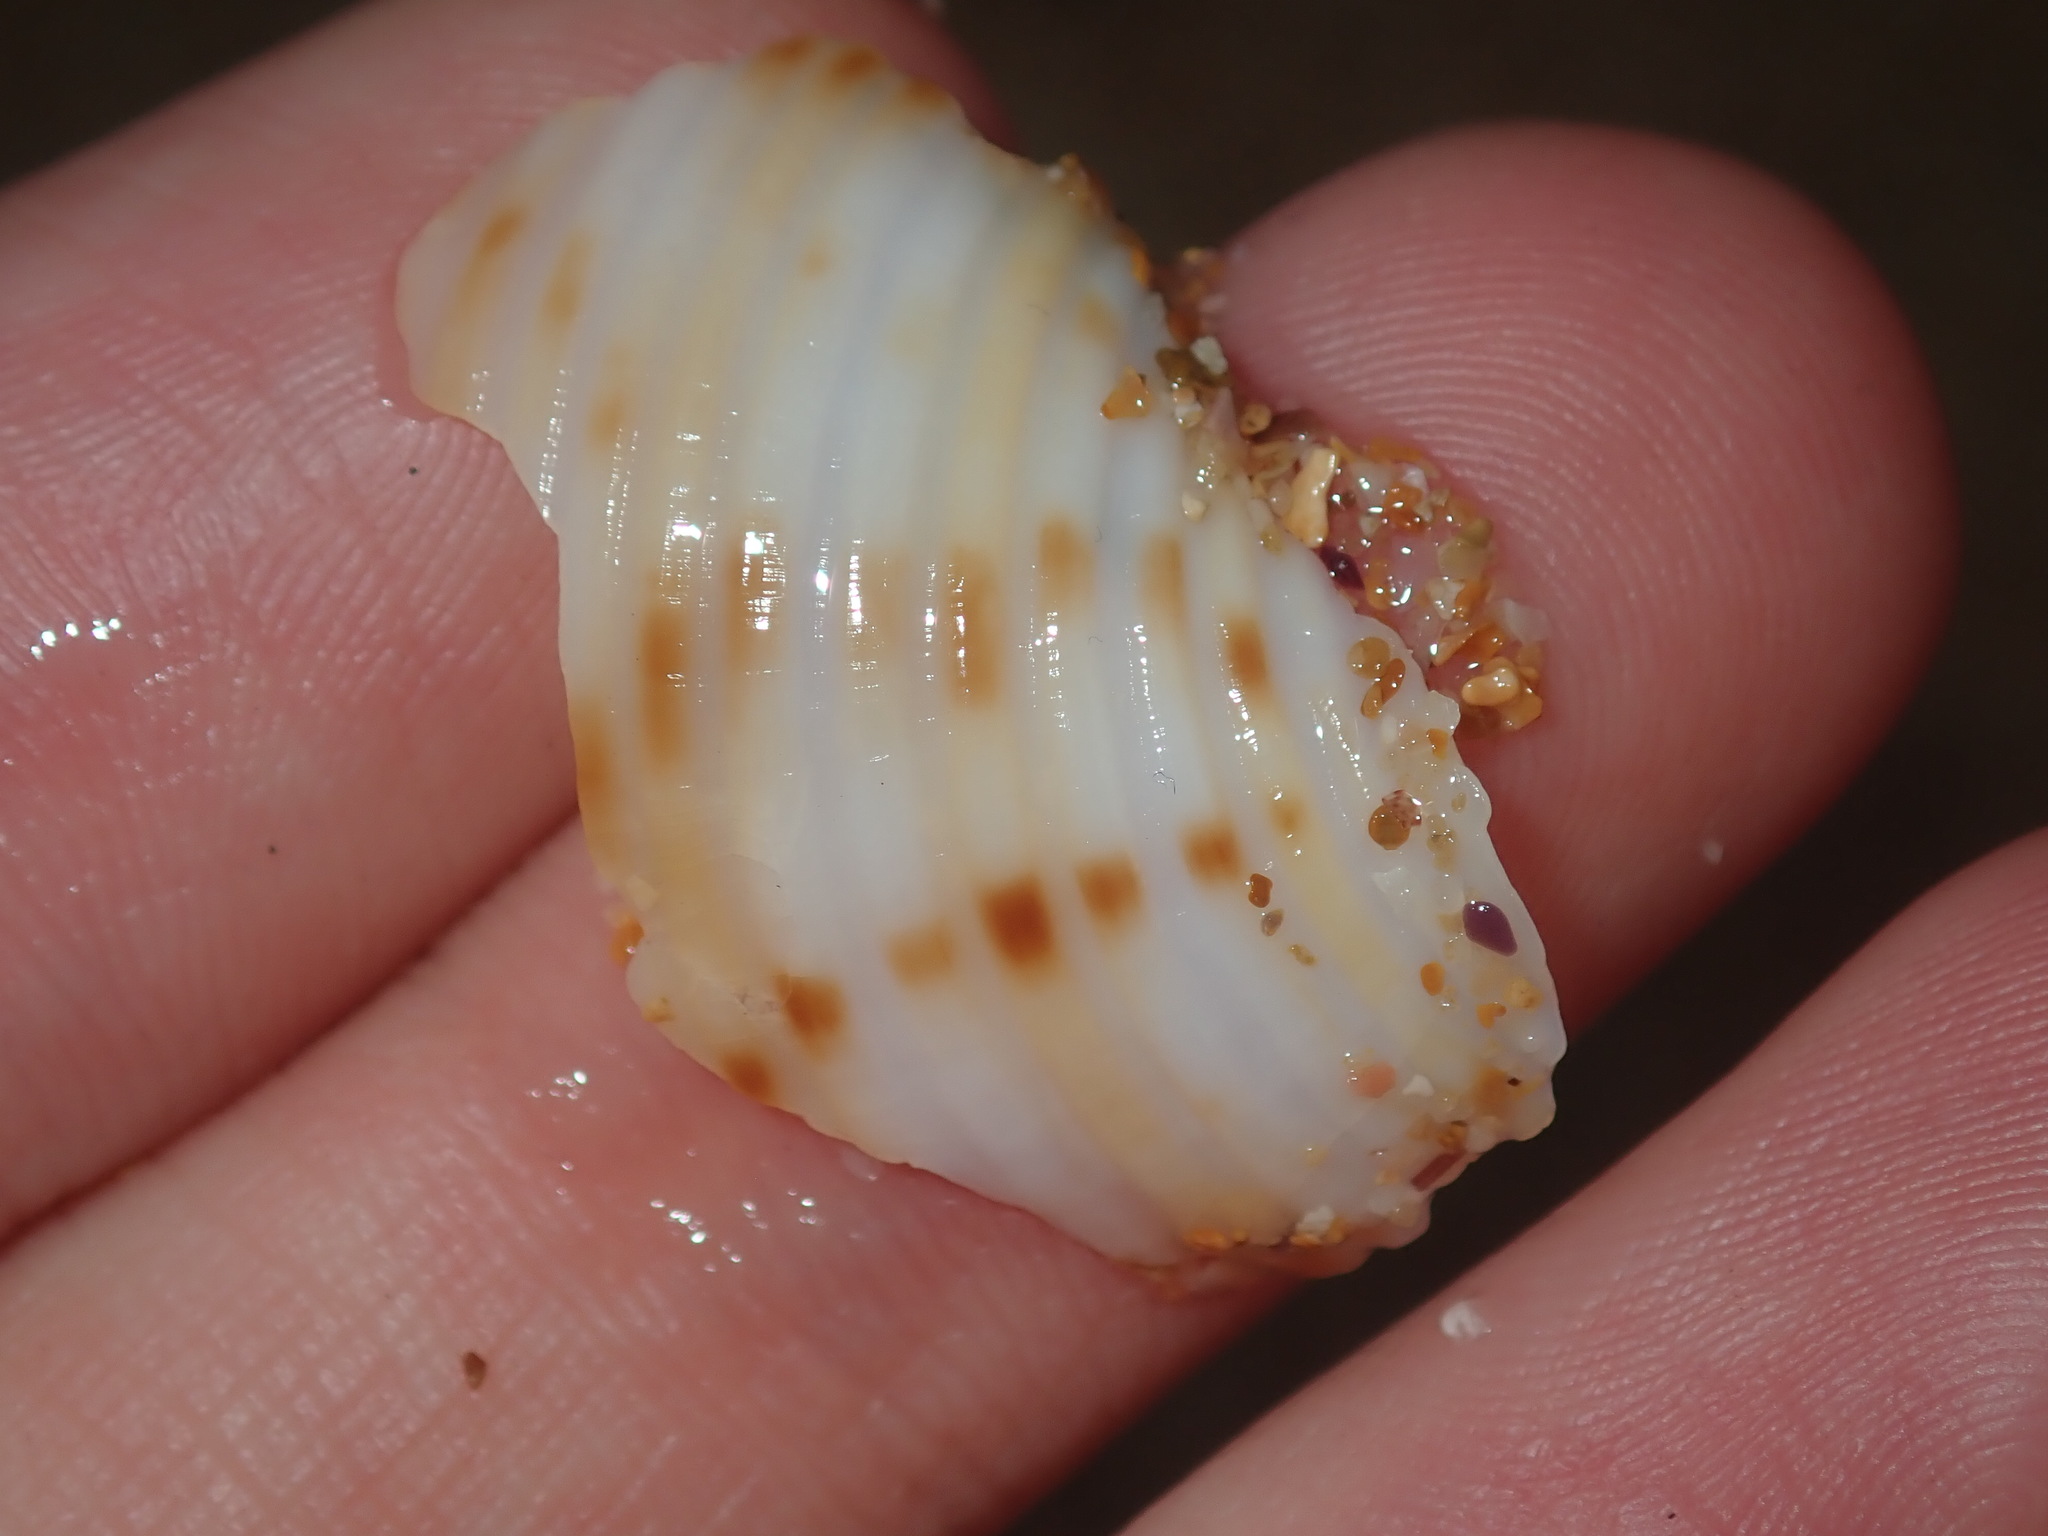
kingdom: Animalia
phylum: Mollusca
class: Gastropoda
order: Littorinimorpha
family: Tonnidae
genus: Tonna
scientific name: Tonna tankervillii
